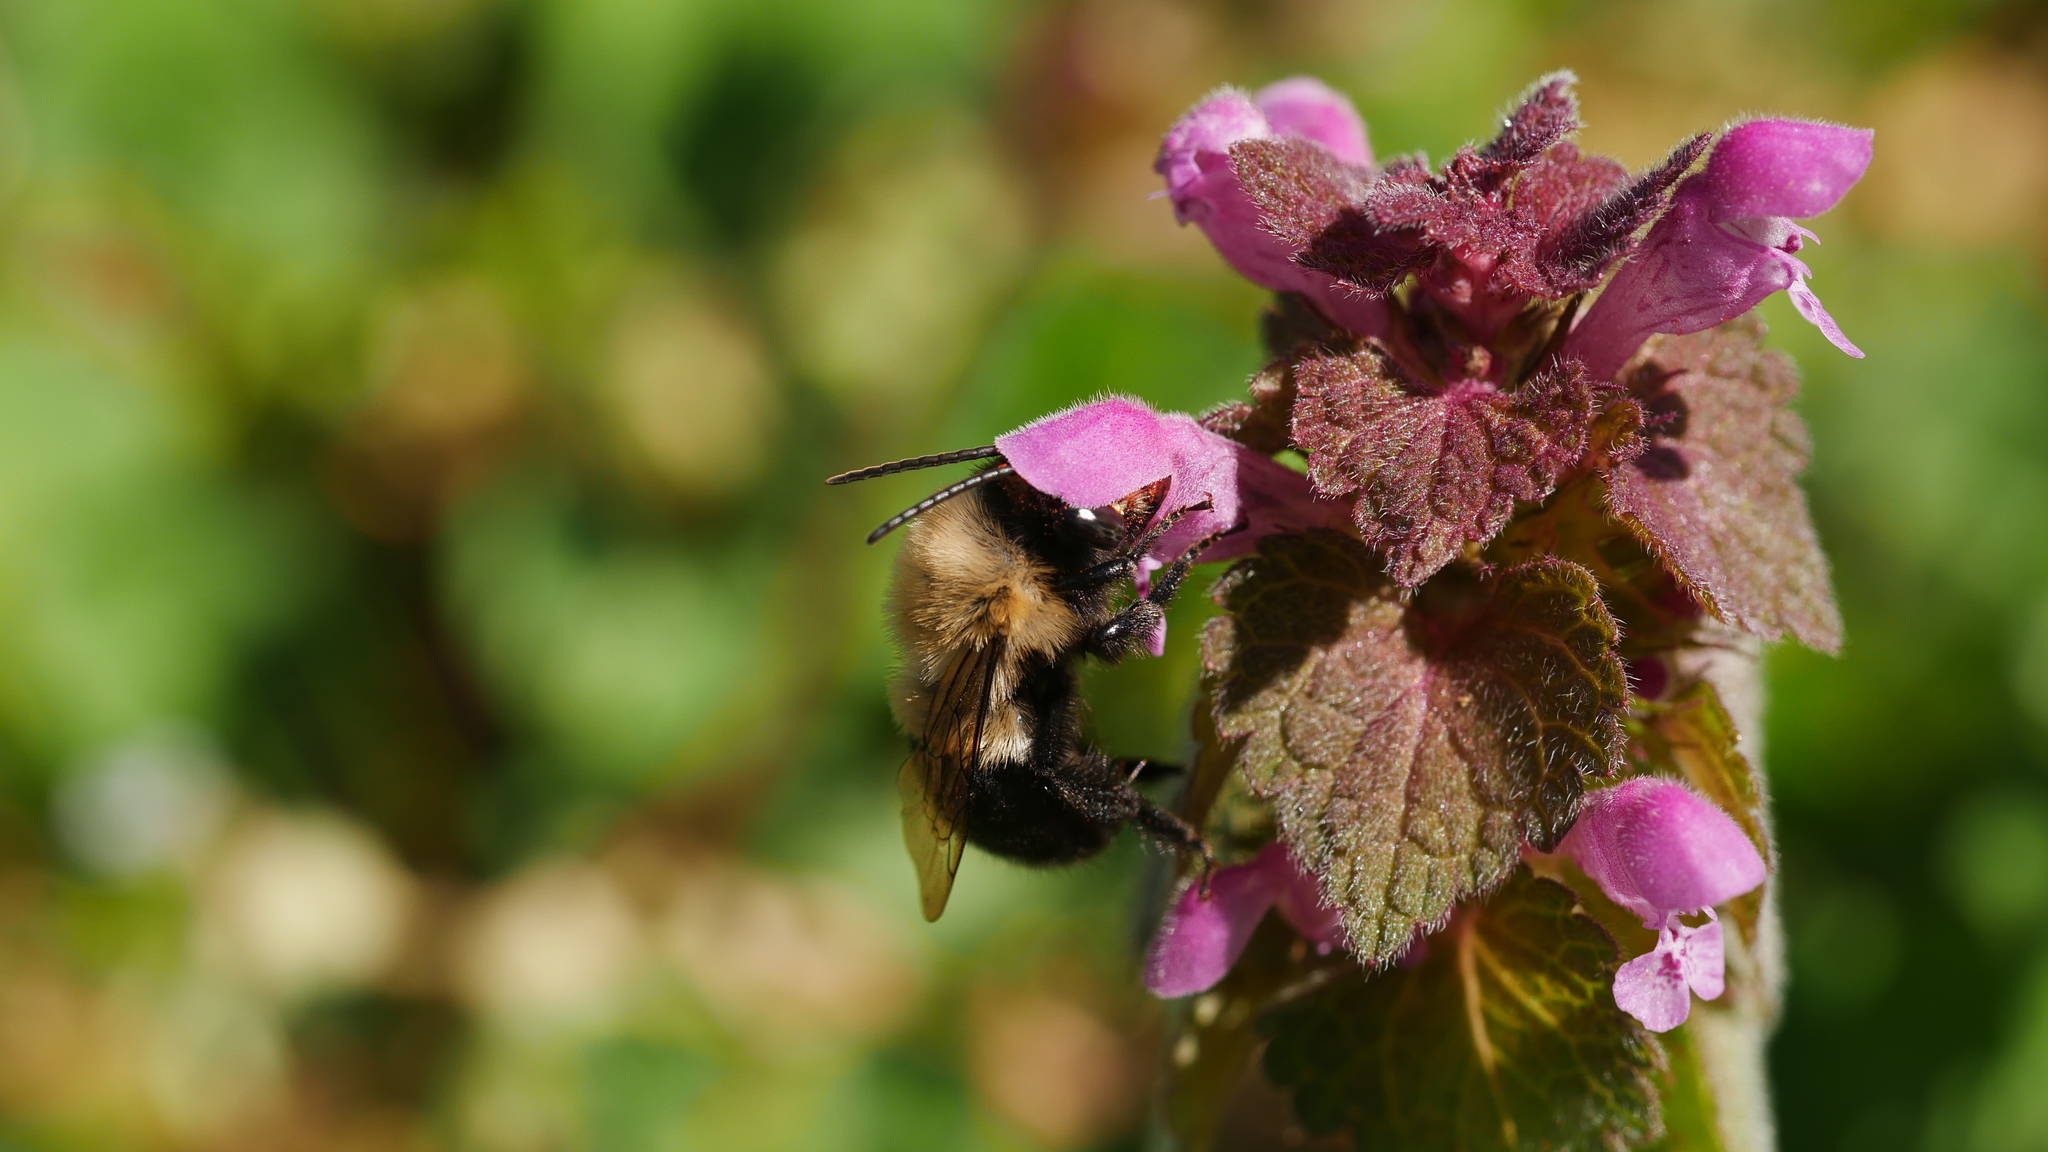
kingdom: Animalia
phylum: Arthropoda
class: Insecta
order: Hymenoptera
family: Apidae
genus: Habropoda
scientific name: Habropoda laboriosa
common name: Southeastern blueberry bee
